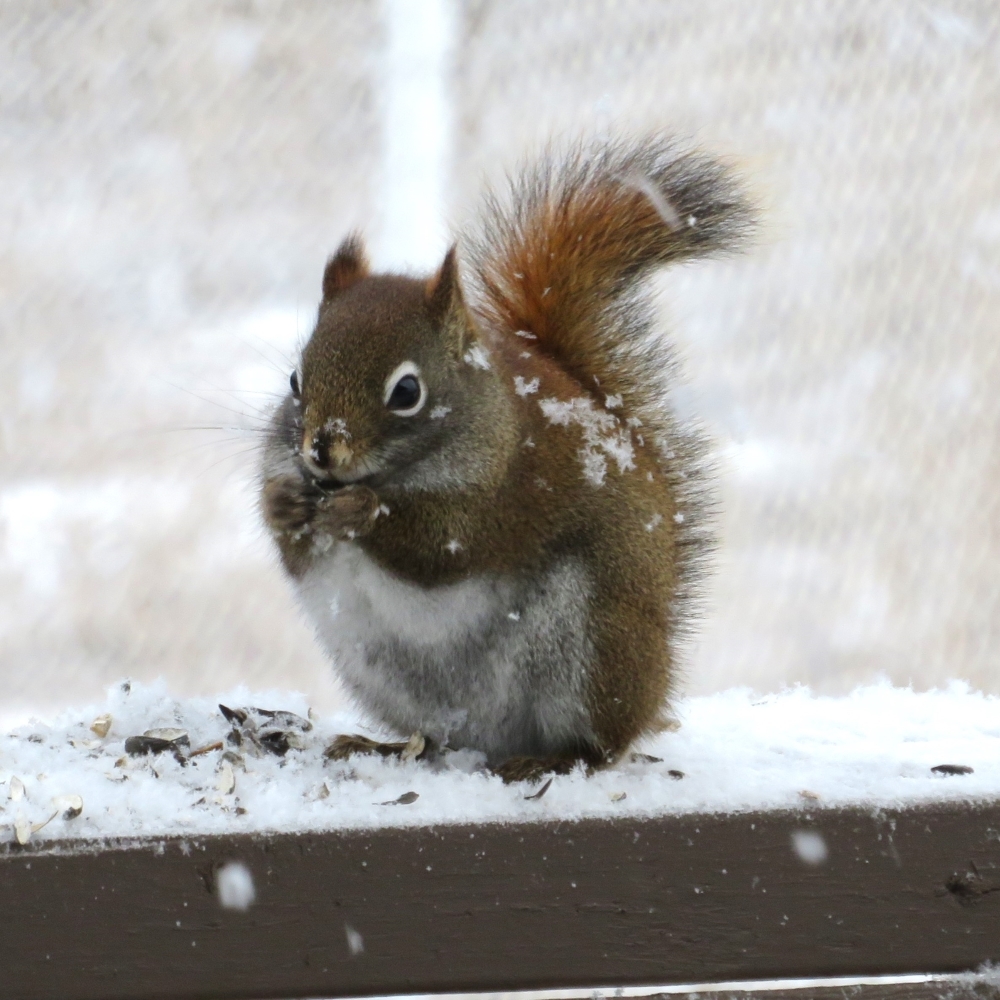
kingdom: Animalia
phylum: Chordata
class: Mammalia
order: Rodentia
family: Sciuridae
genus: Tamiasciurus
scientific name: Tamiasciurus hudsonicus
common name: Red squirrel
